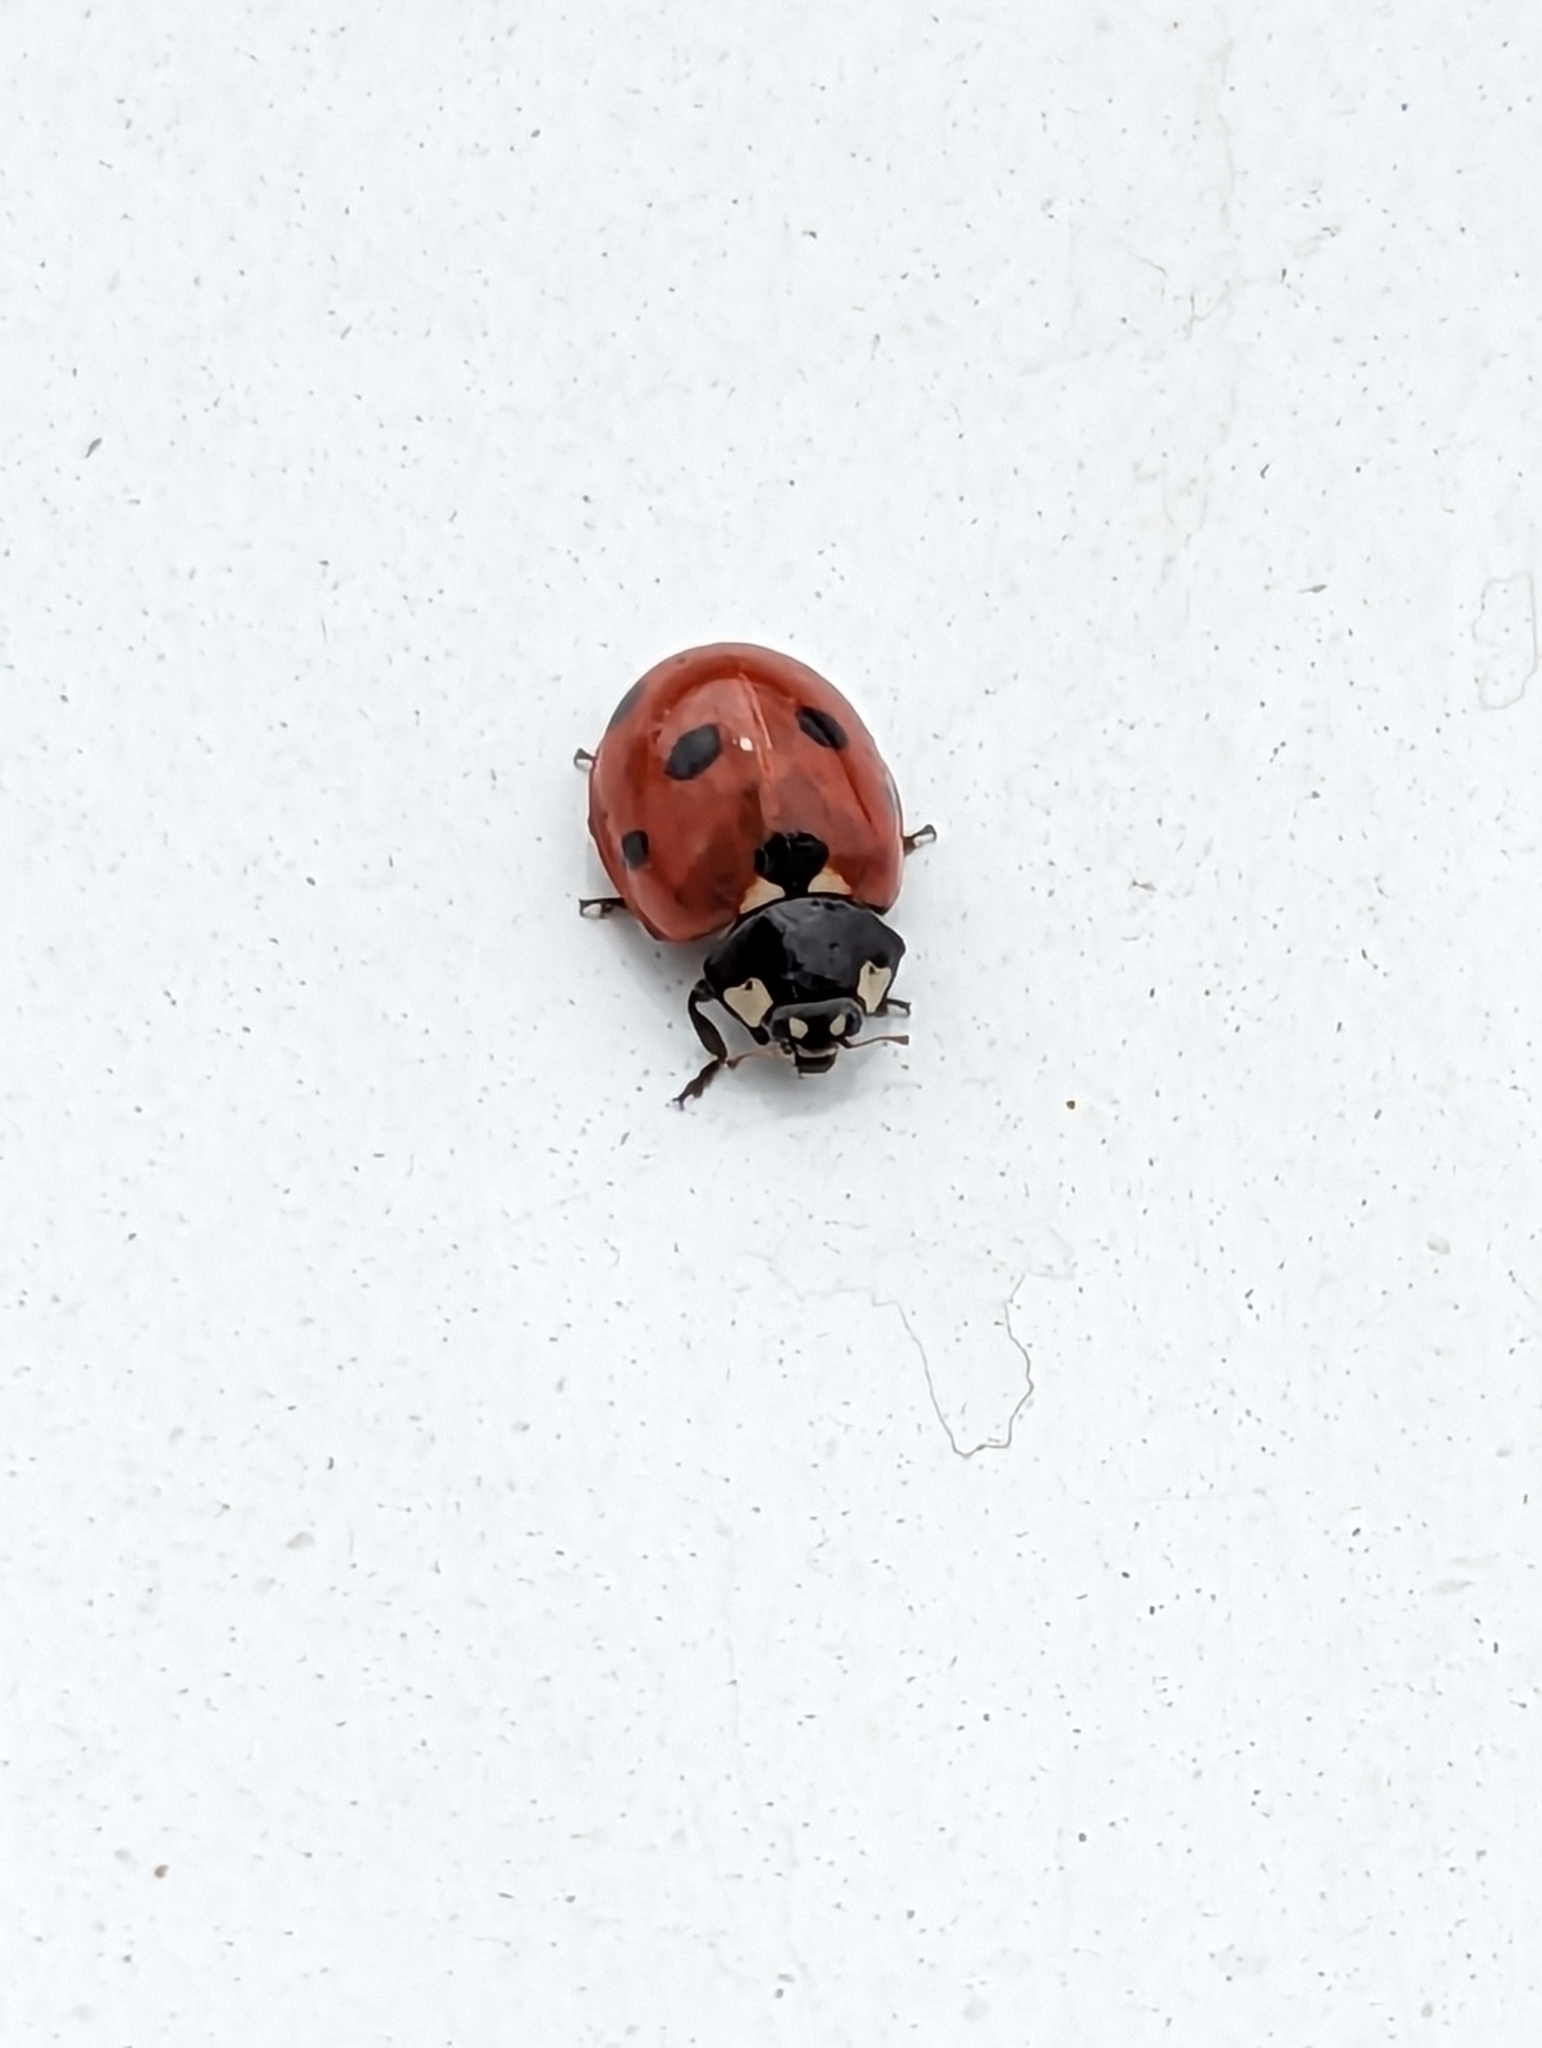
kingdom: Animalia
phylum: Arthropoda
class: Insecta
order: Coleoptera
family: Coccinellidae
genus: Coccinella
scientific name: Coccinella septempunctata
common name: Sevenspotted lady beetle
